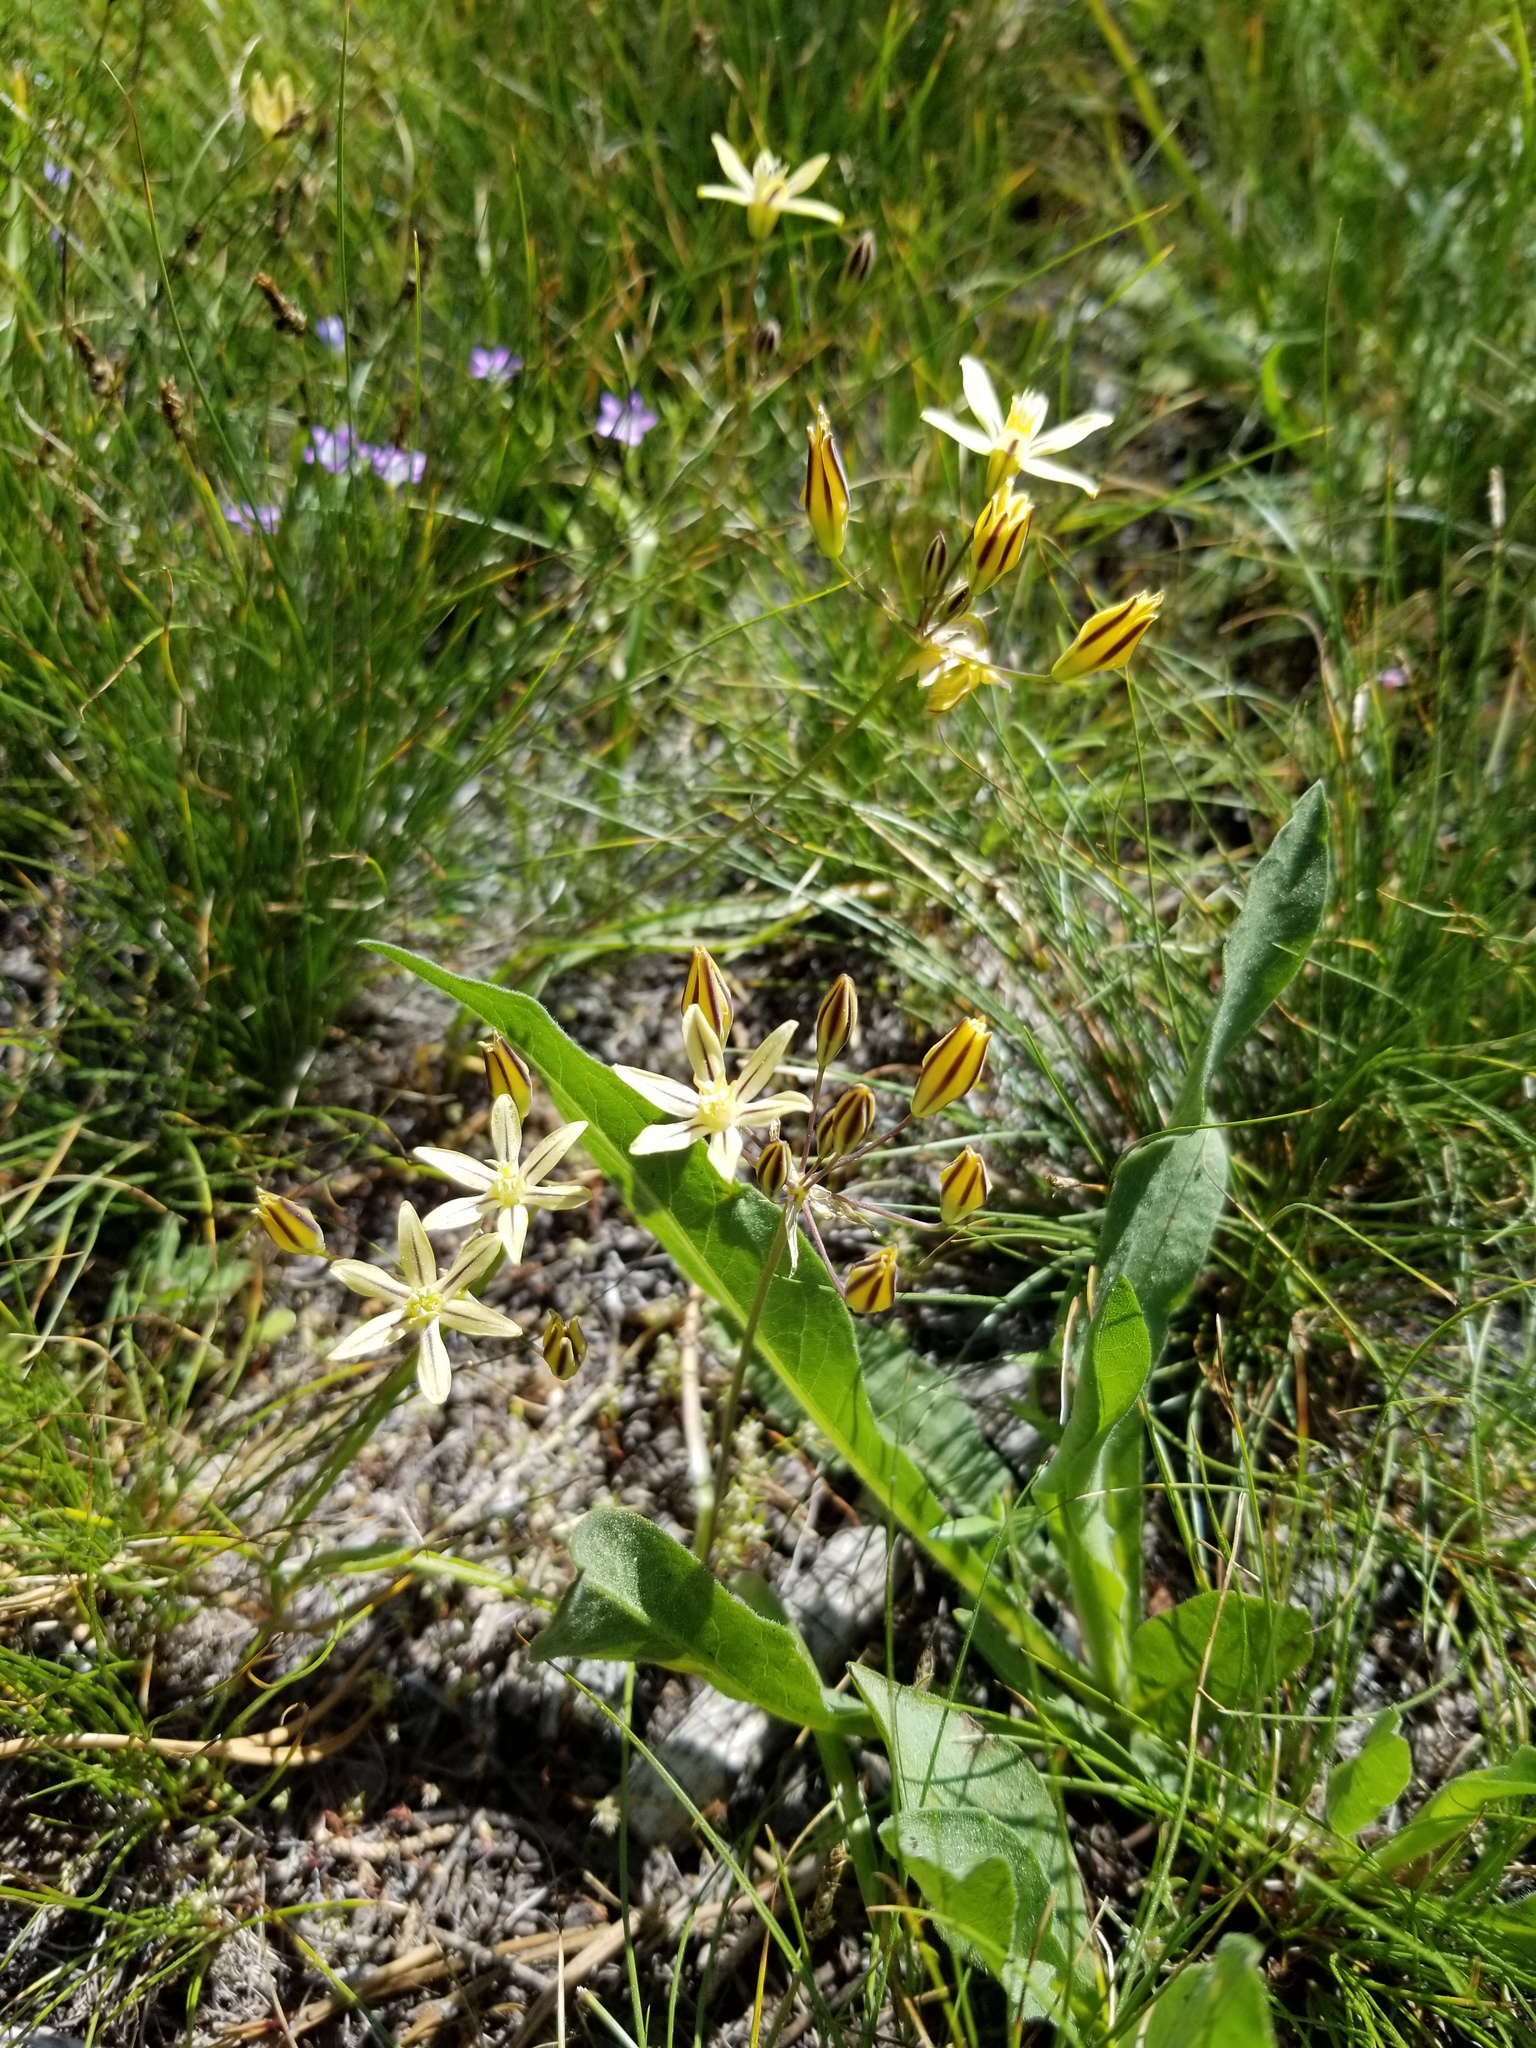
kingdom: Plantae
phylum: Tracheophyta
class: Liliopsida
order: Asparagales
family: Asparagaceae
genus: Triteleia
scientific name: Triteleia ixioides
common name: Yellow-brodiaea
